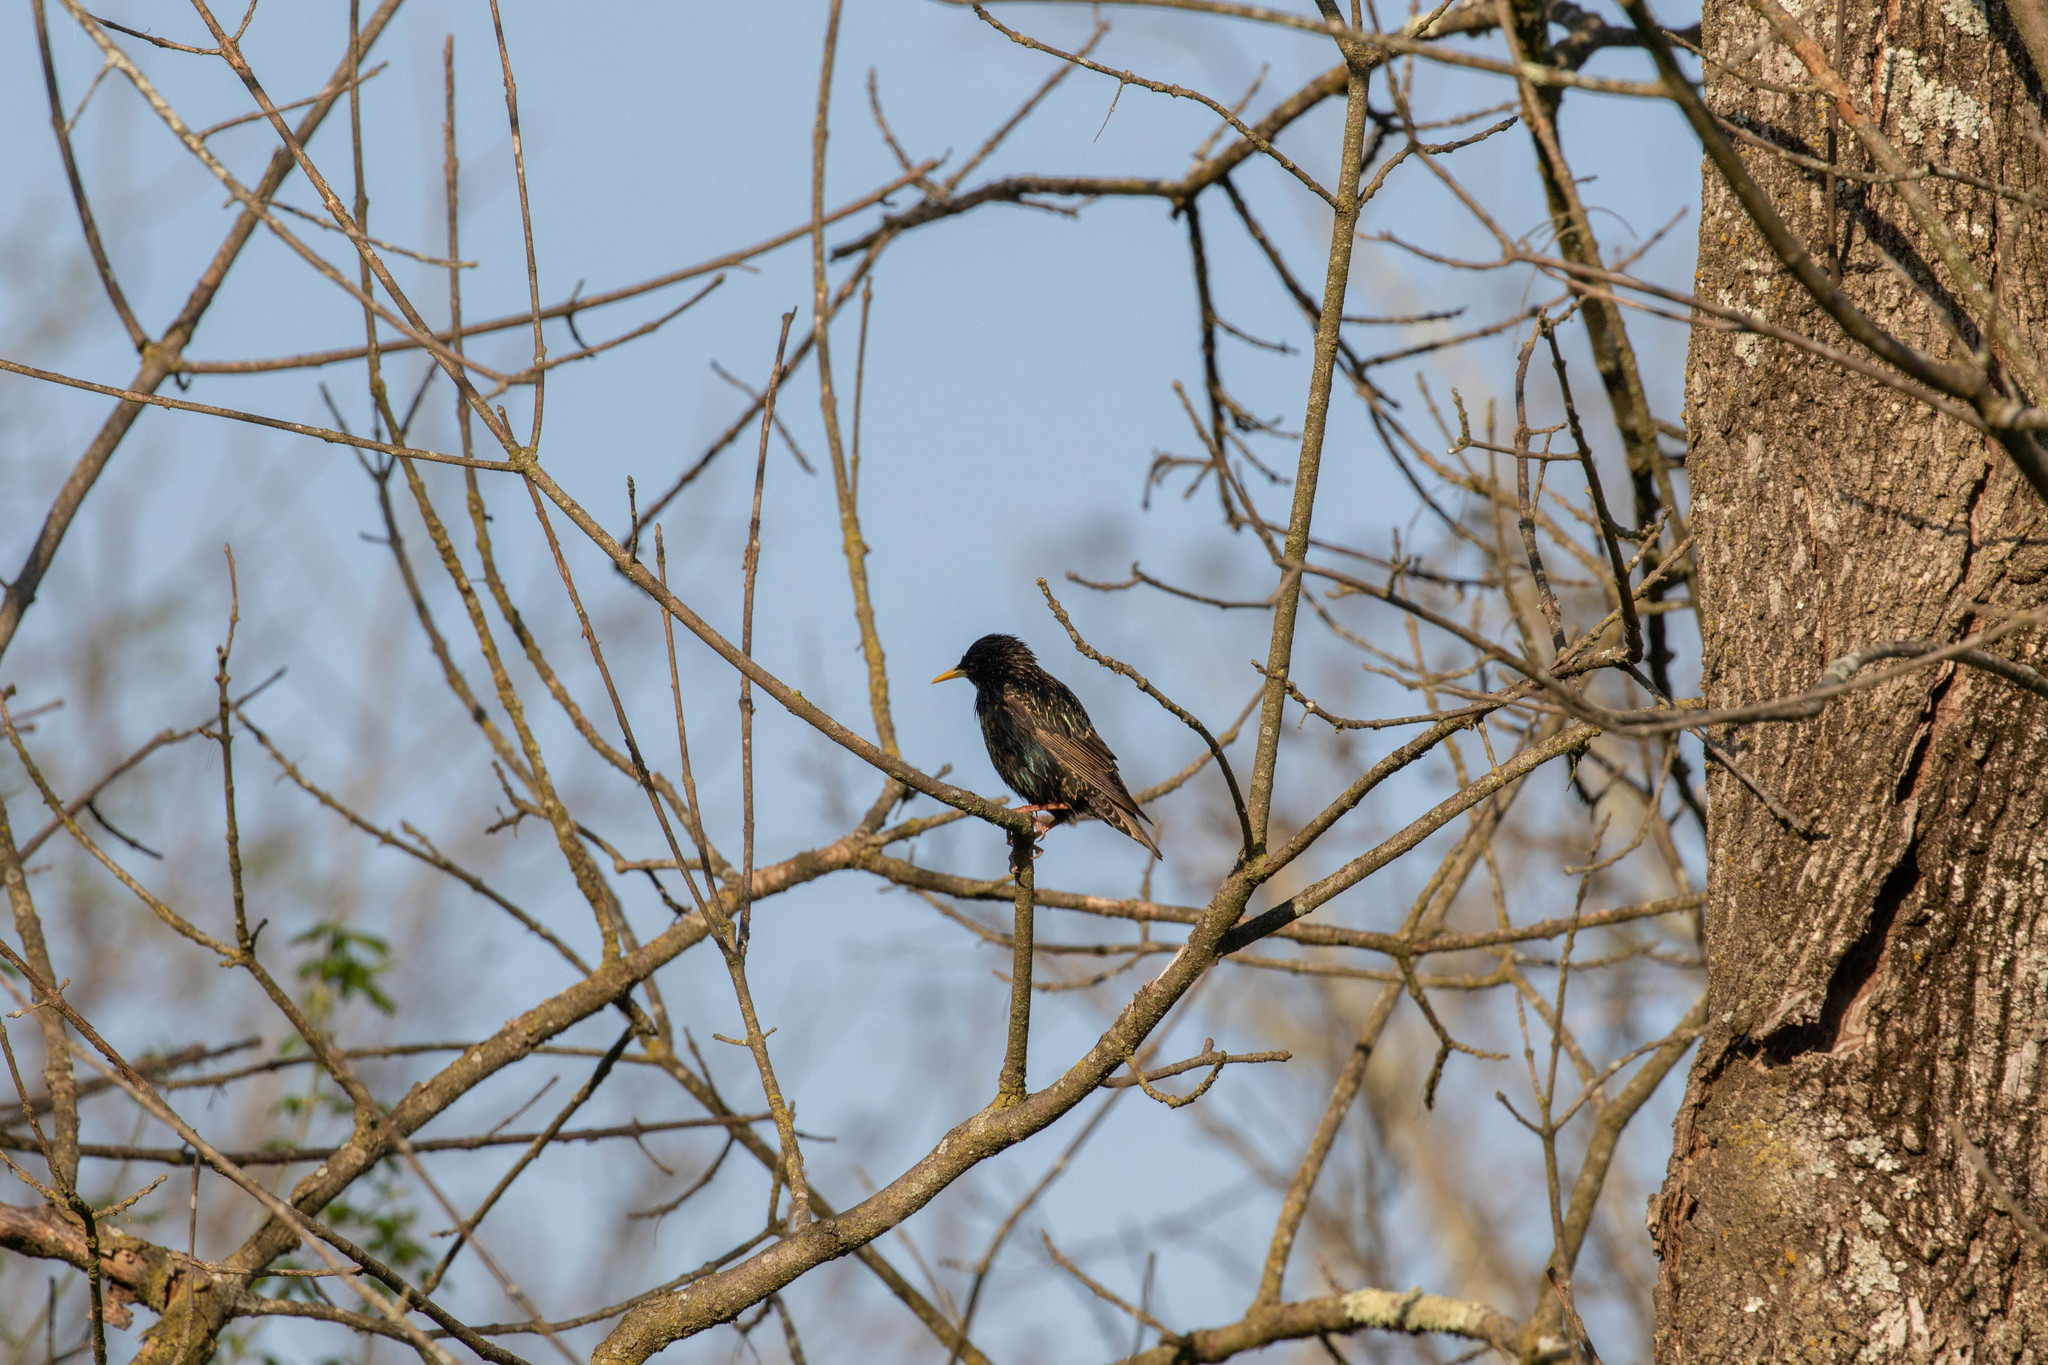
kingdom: Animalia
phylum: Chordata
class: Aves
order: Passeriformes
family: Sturnidae
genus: Sturnus
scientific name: Sturnus vulgaris
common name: Common starling
